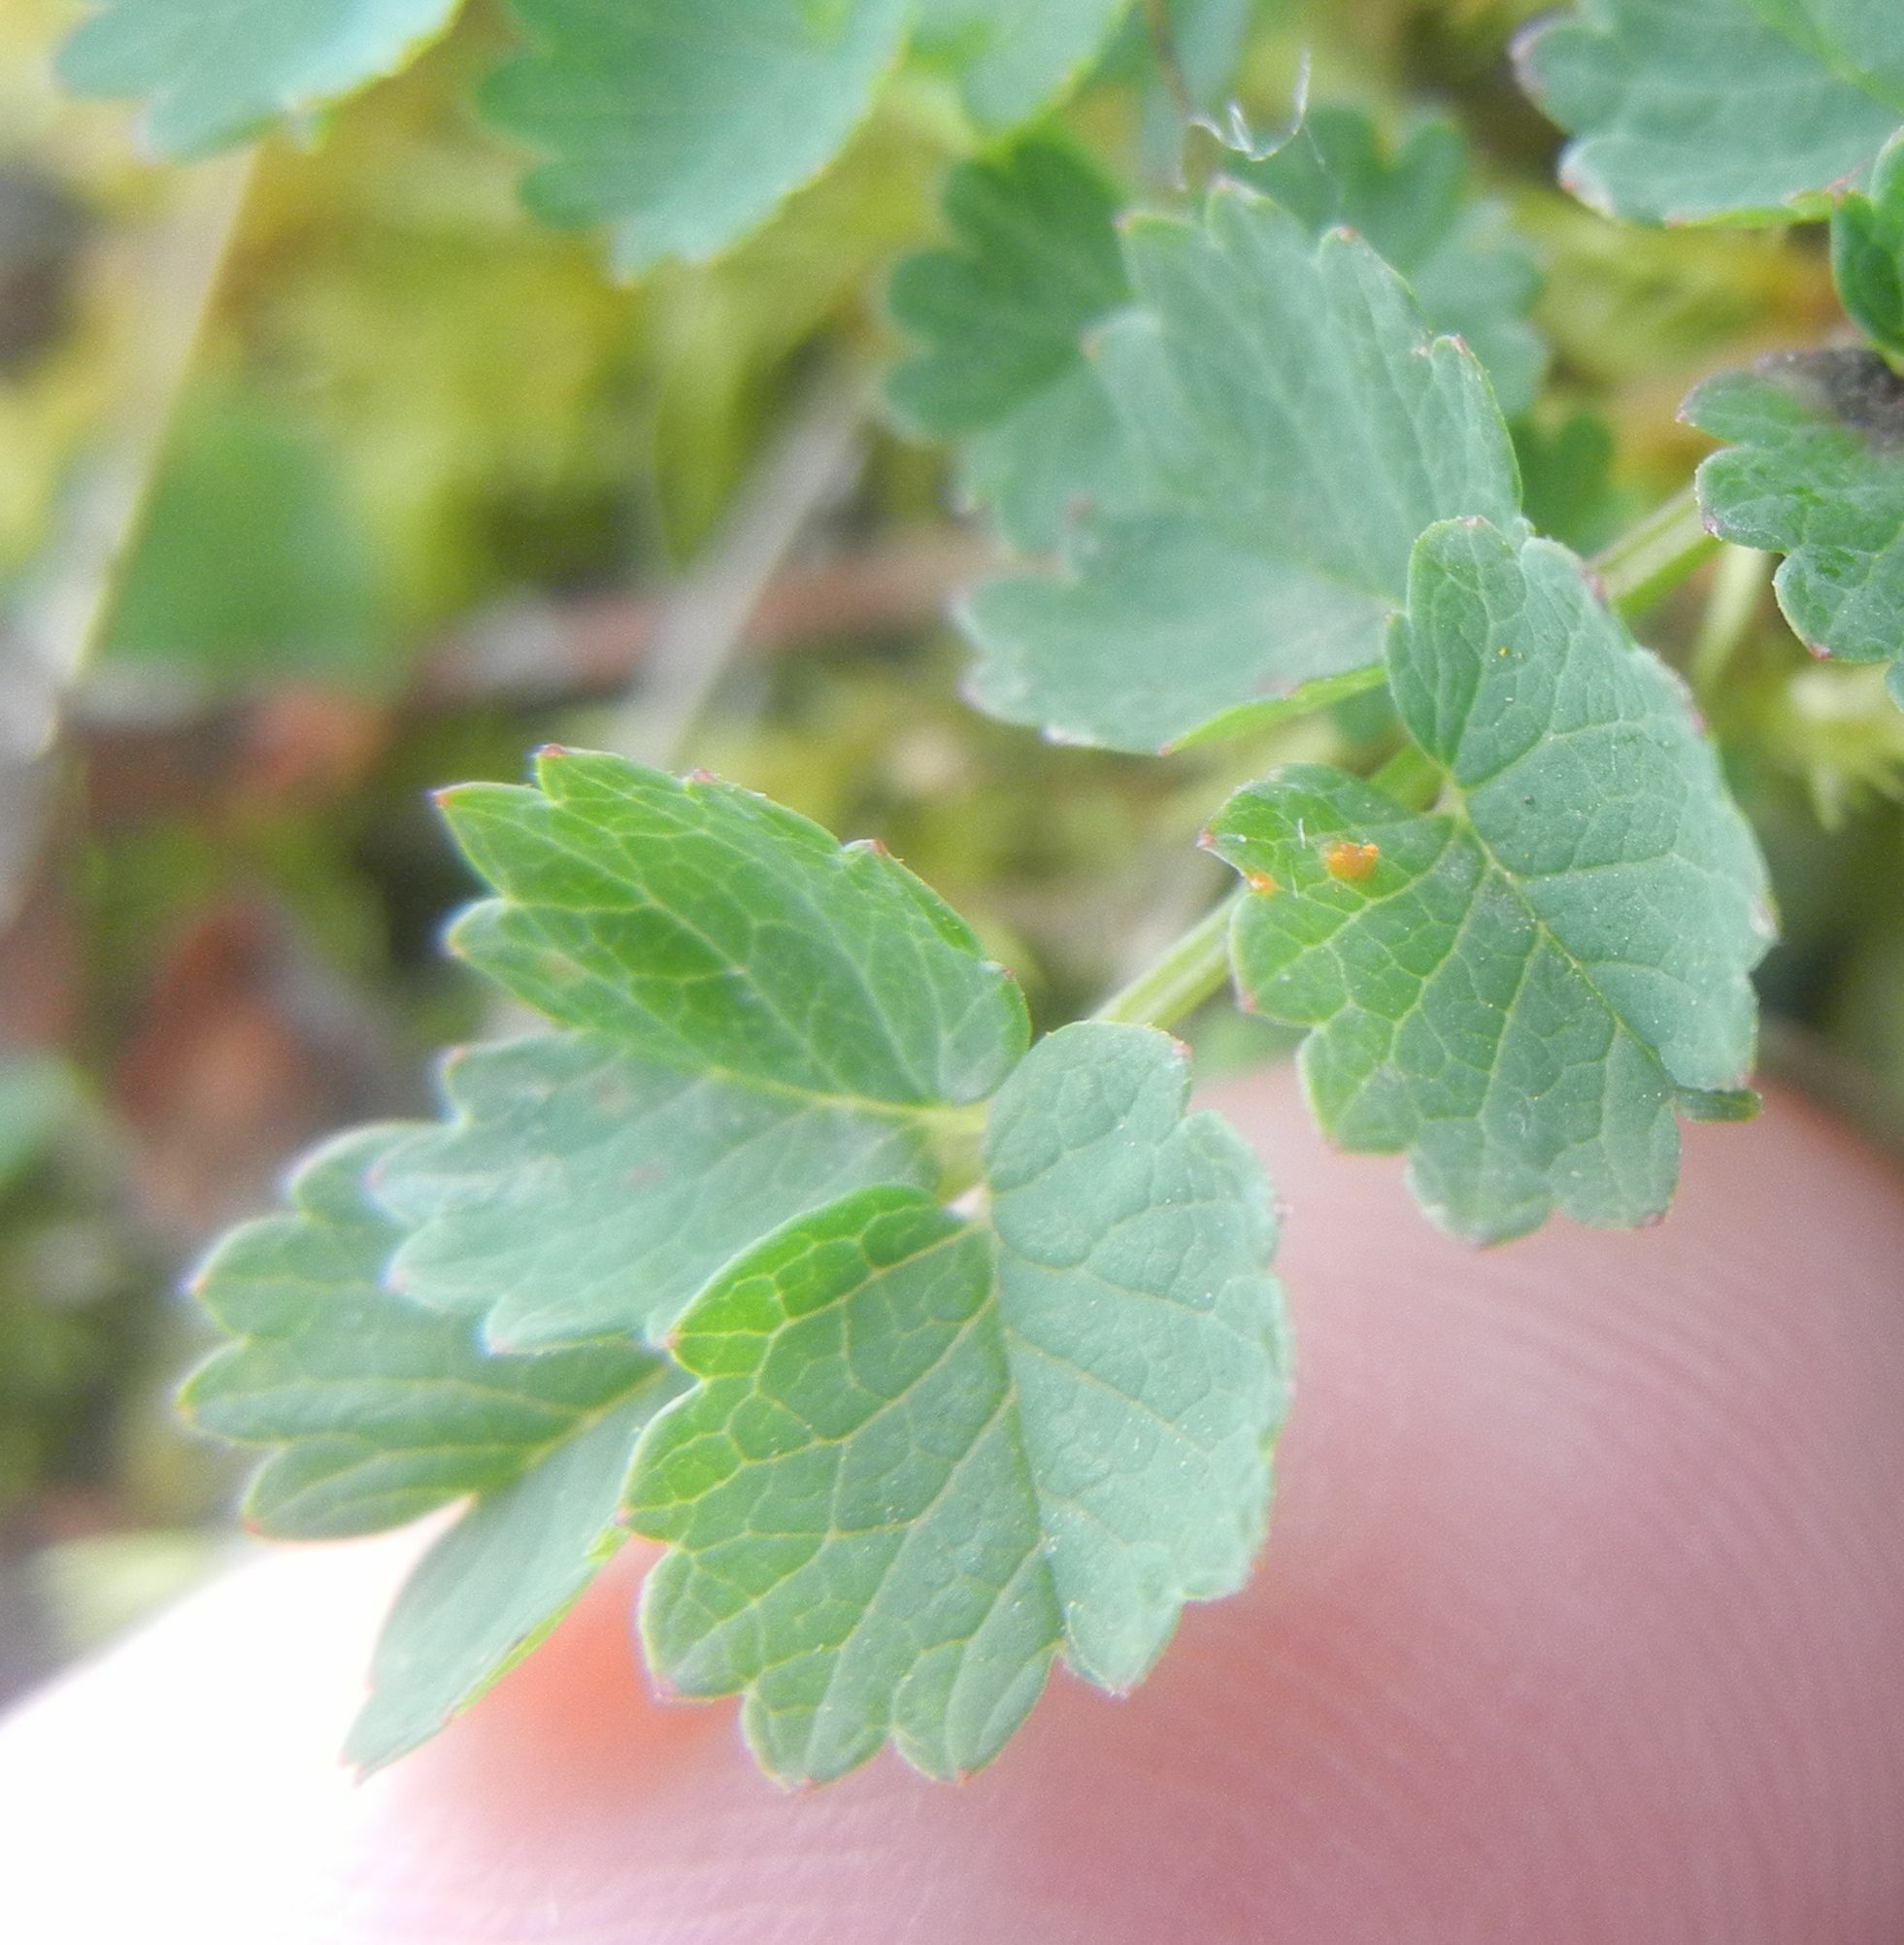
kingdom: Fungi
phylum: Basidiomycota
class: Pucciniomycetes
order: Pucciniales
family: Phragmidiaceae
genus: Phragmidium
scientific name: Phragmidium sanguisorbae
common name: Salad burnet rust
